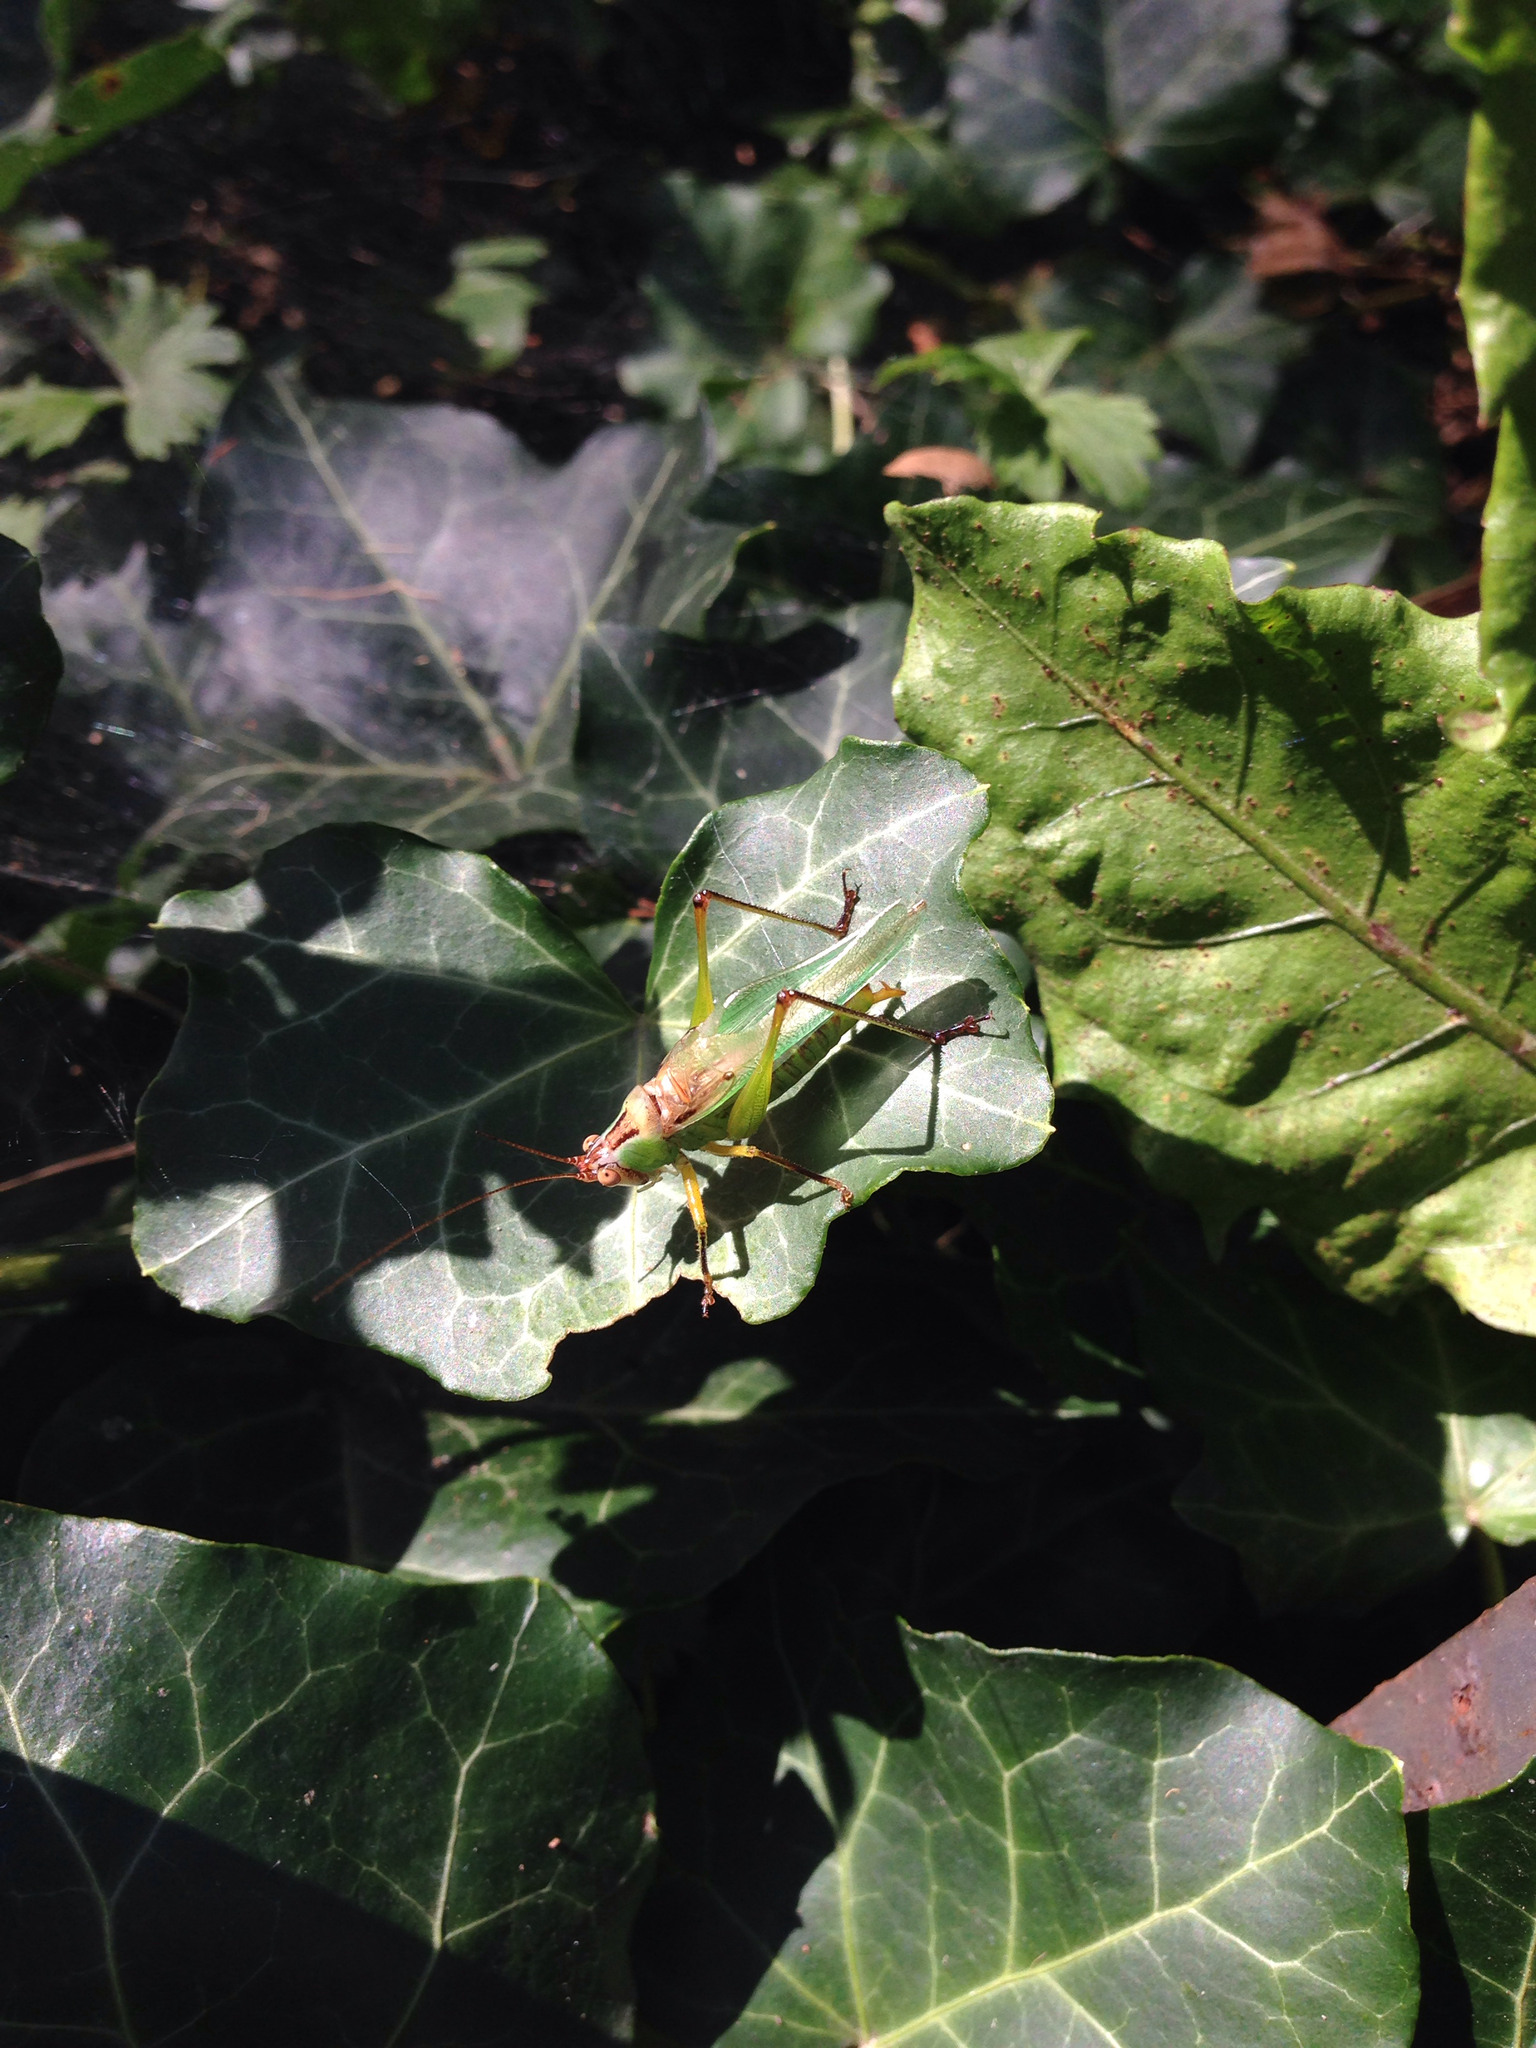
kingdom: Animalia
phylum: Arthropoda
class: Insecta
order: Orthoptera
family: Tettigoniidae
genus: Orchelimum
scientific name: Orchelimum nigripes
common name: Black-legged meadow katydid
